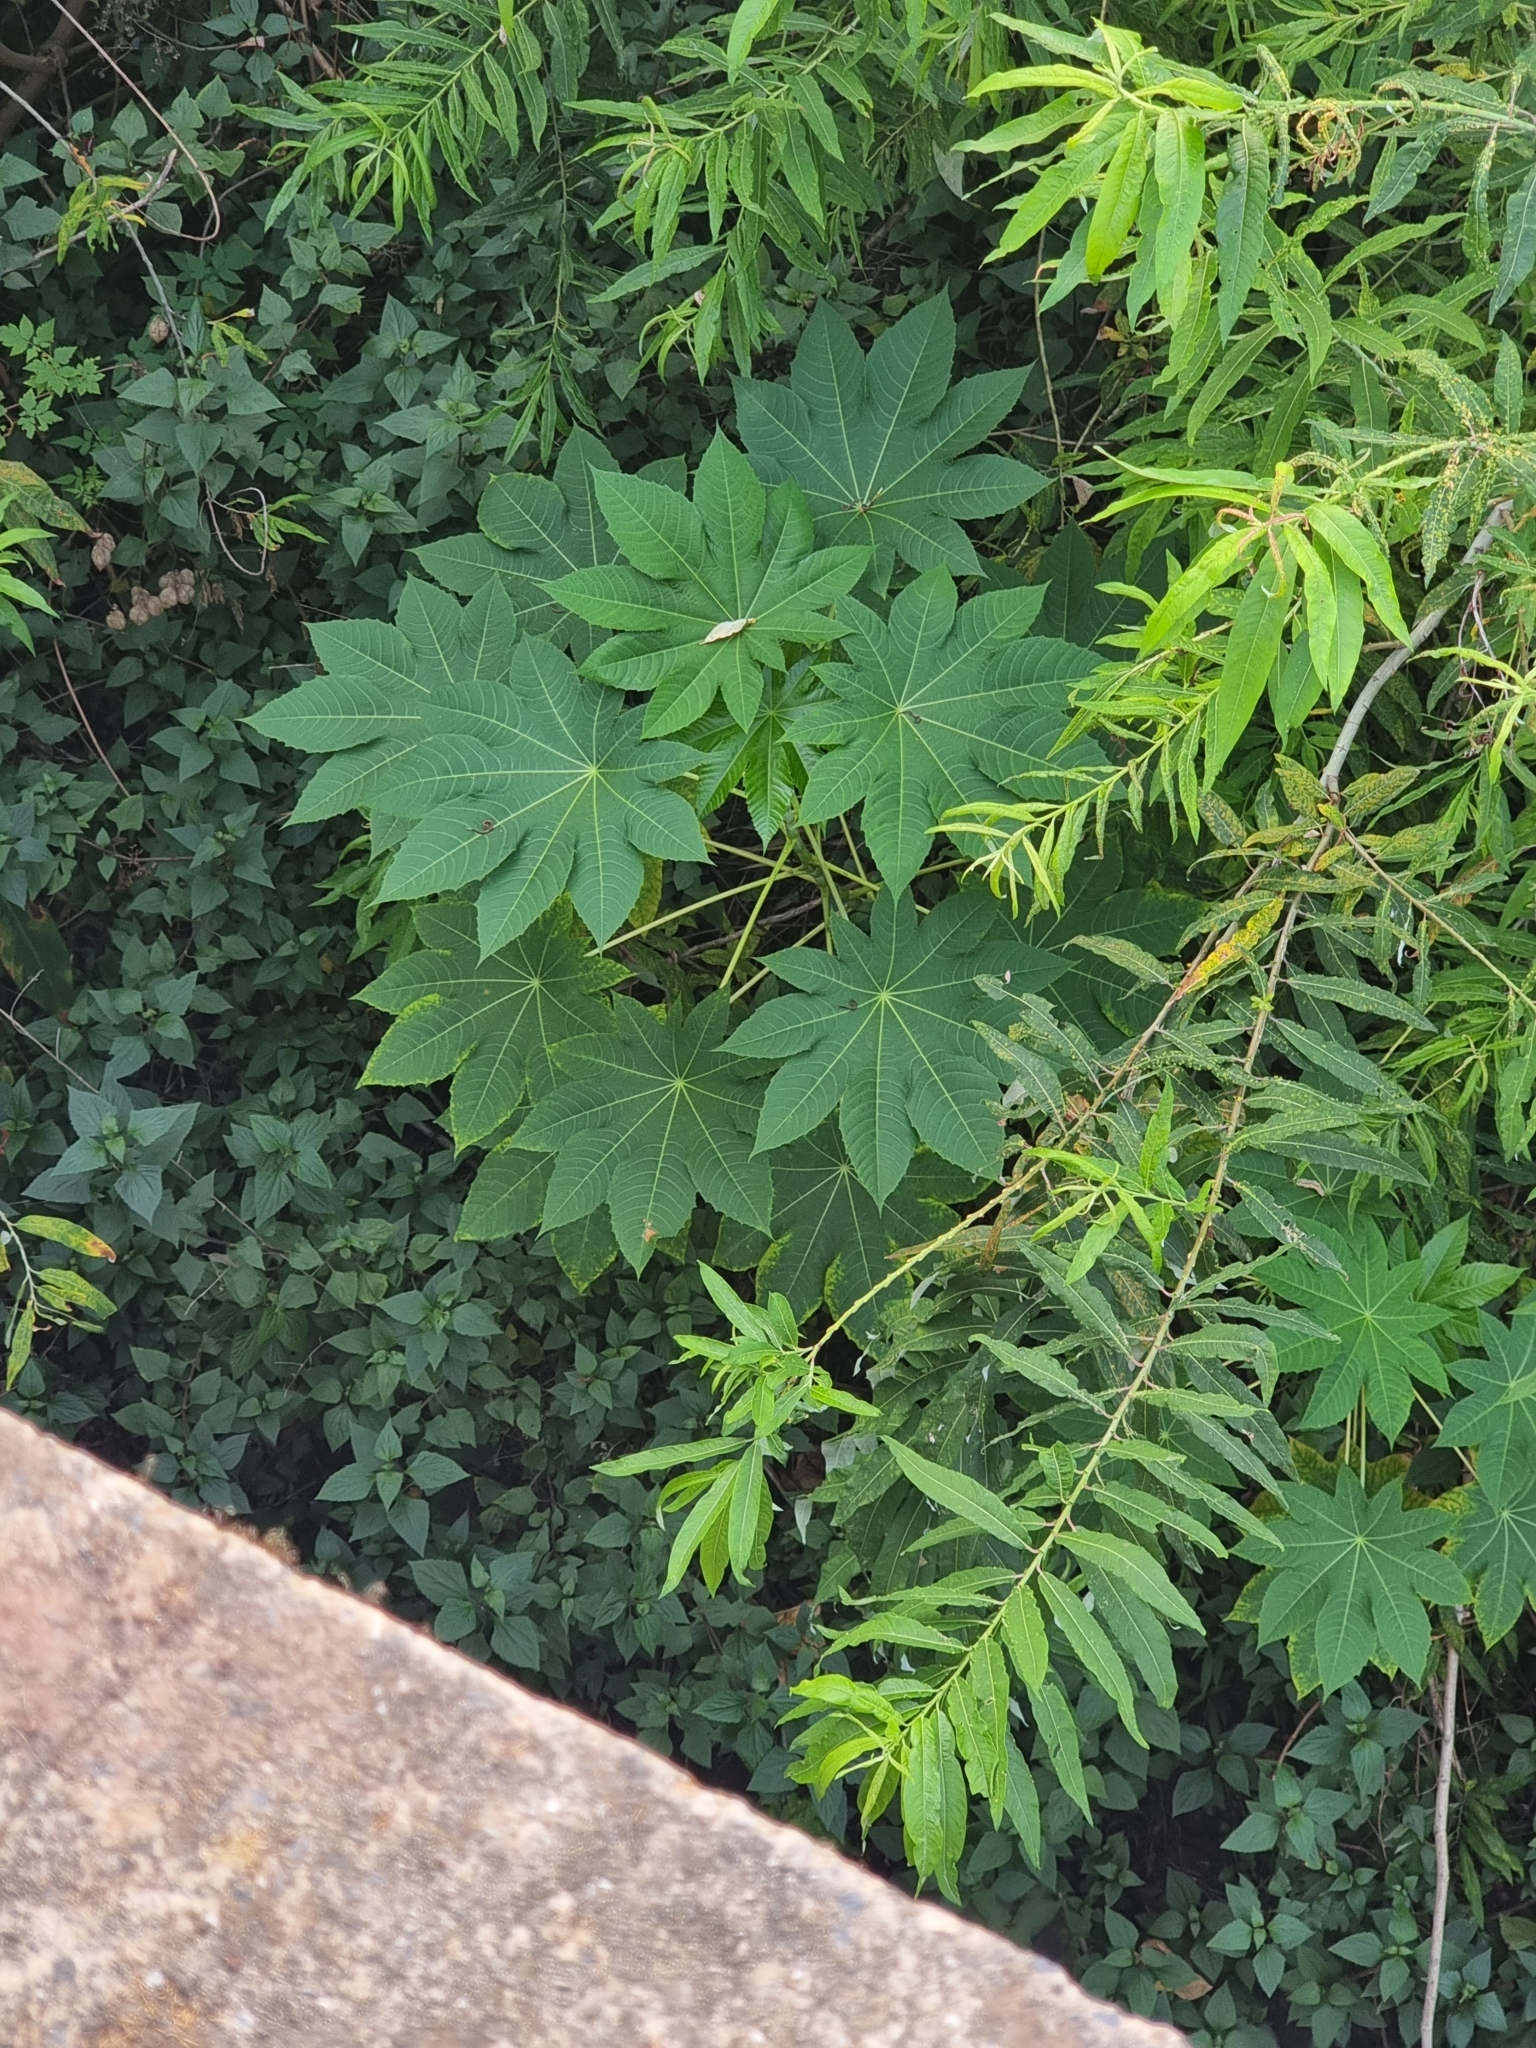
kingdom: Plantae
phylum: Tracheophyta
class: Magnoliopsida
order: Malpighiales
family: Euphorbiaceae
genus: Ricinus
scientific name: Ricinus communis
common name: Castor-oil-plant
